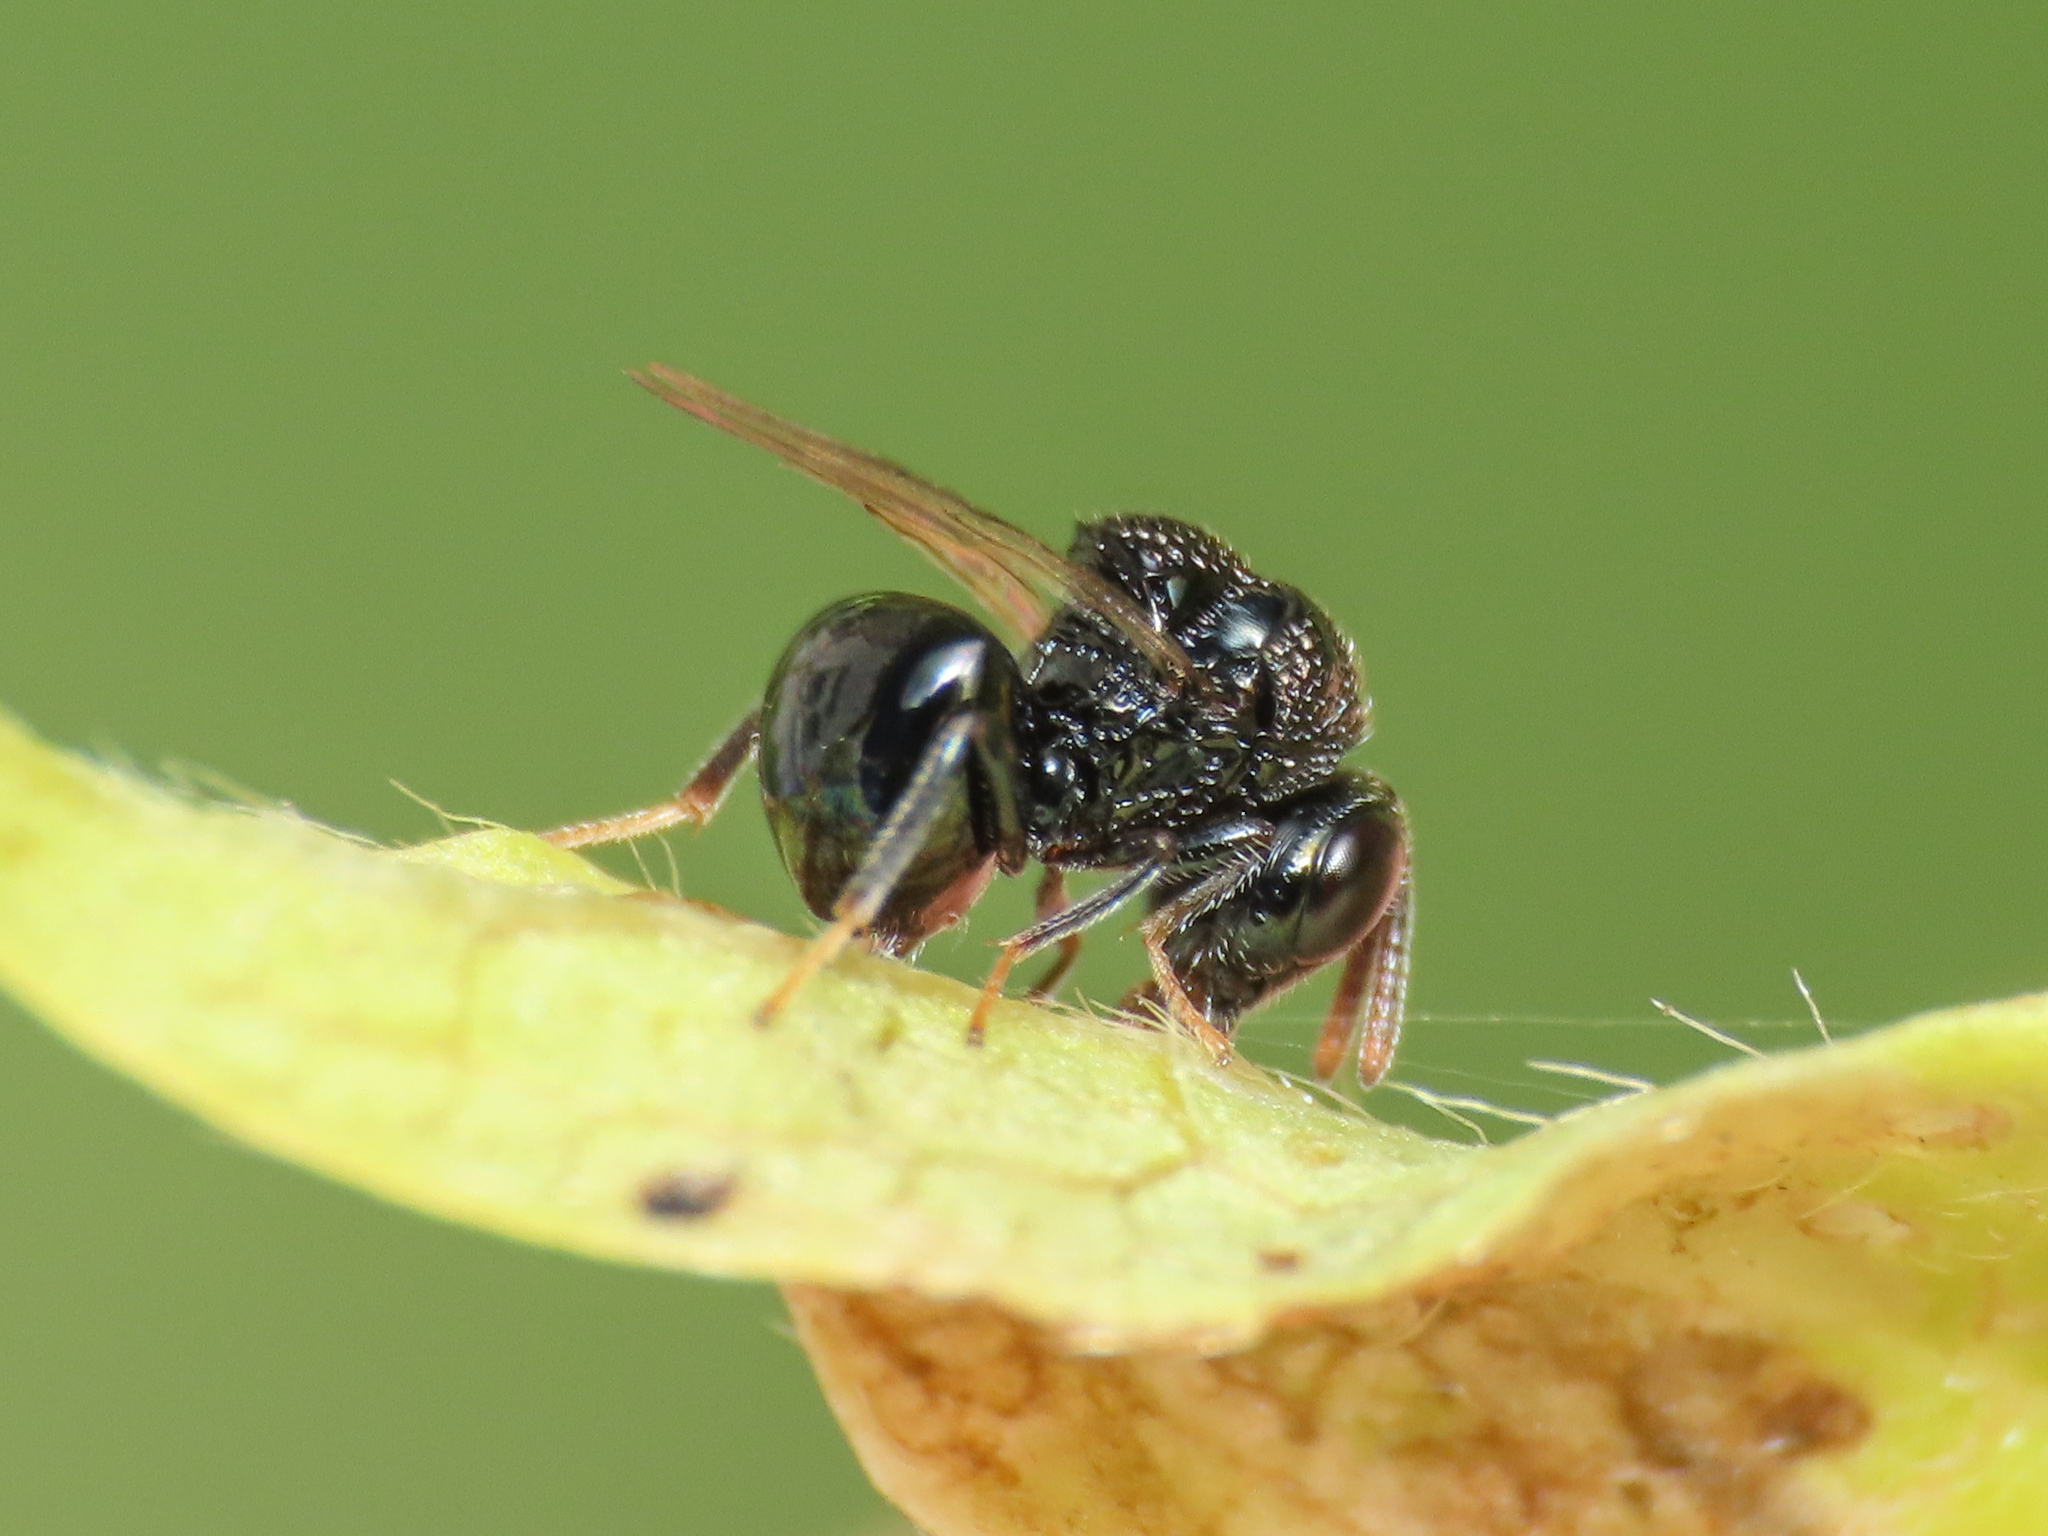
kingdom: Animalia
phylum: Arthropoda
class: Insecta
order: Hymenoptera
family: Perilampidae
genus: Perilampus
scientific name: Perilampus minutalis
